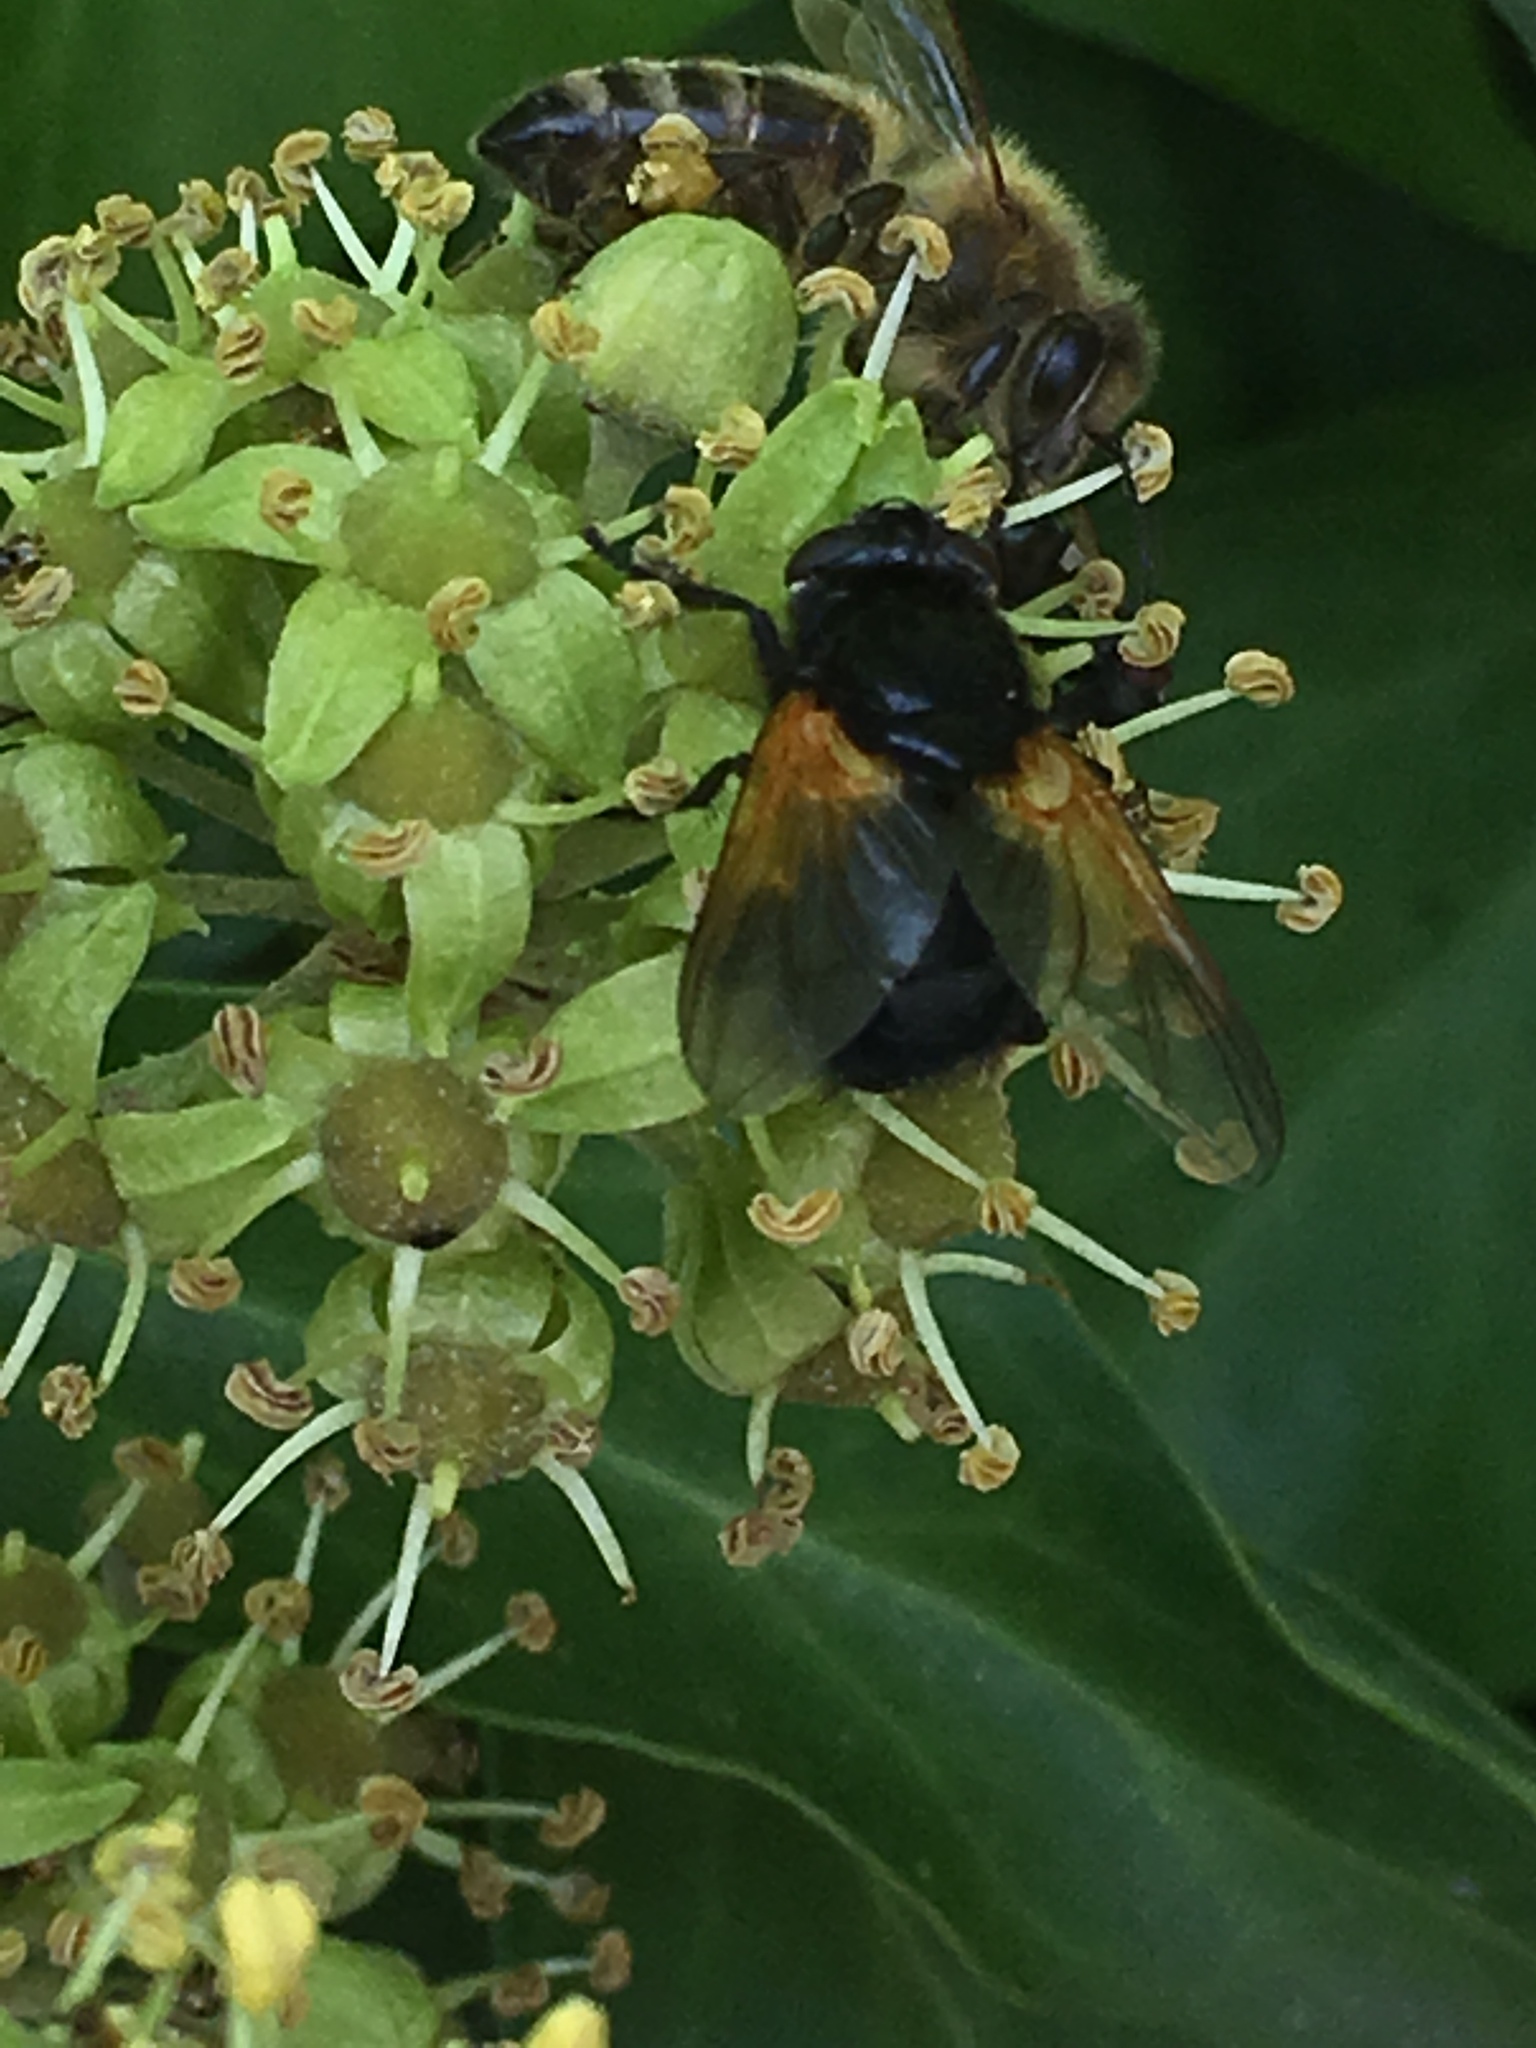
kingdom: Animalia
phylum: Arthropoda
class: Insecta
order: Diptera
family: Muscidae
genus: Mesembrina
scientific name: Mesembrina meridiana
